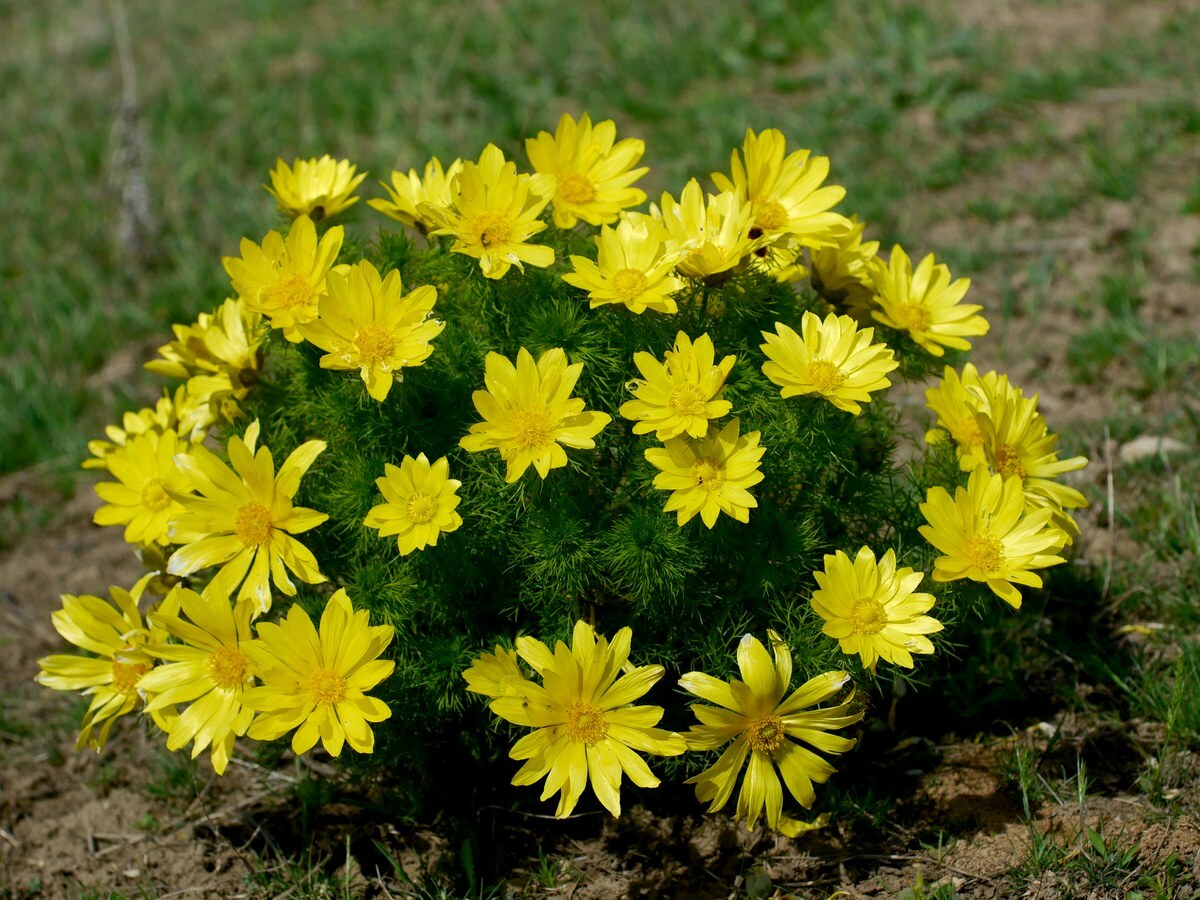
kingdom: Plantae
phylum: Tracheophyta
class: Magnoliopsida
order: Ranunculales
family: Ranunculaceae
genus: Adonis
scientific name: Adonis vernalis
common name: Yellow pheasants-eye
